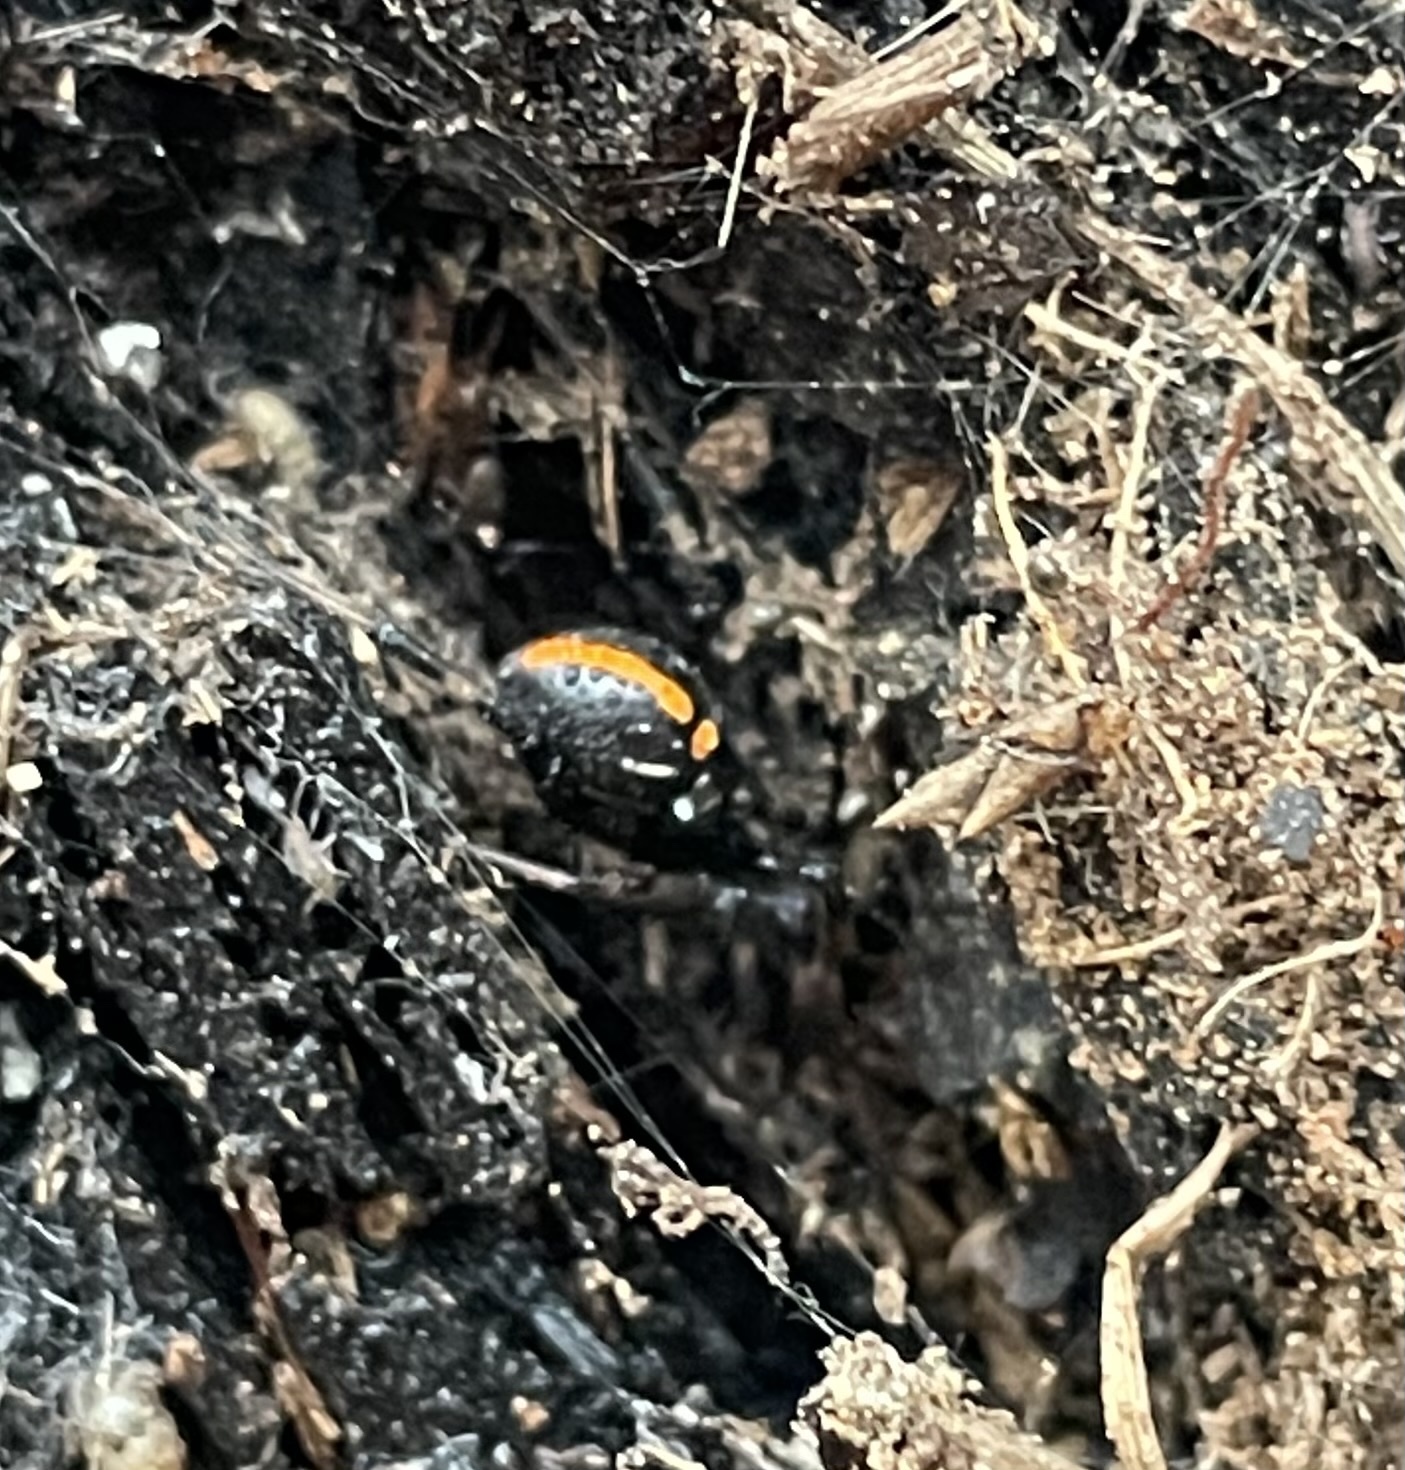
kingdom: Animalia
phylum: Arthropoda
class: Arachnida
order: Araneae
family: Theridiidae
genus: Latrodectus
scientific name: Latrodectus mactans
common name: Cobweb spiders
